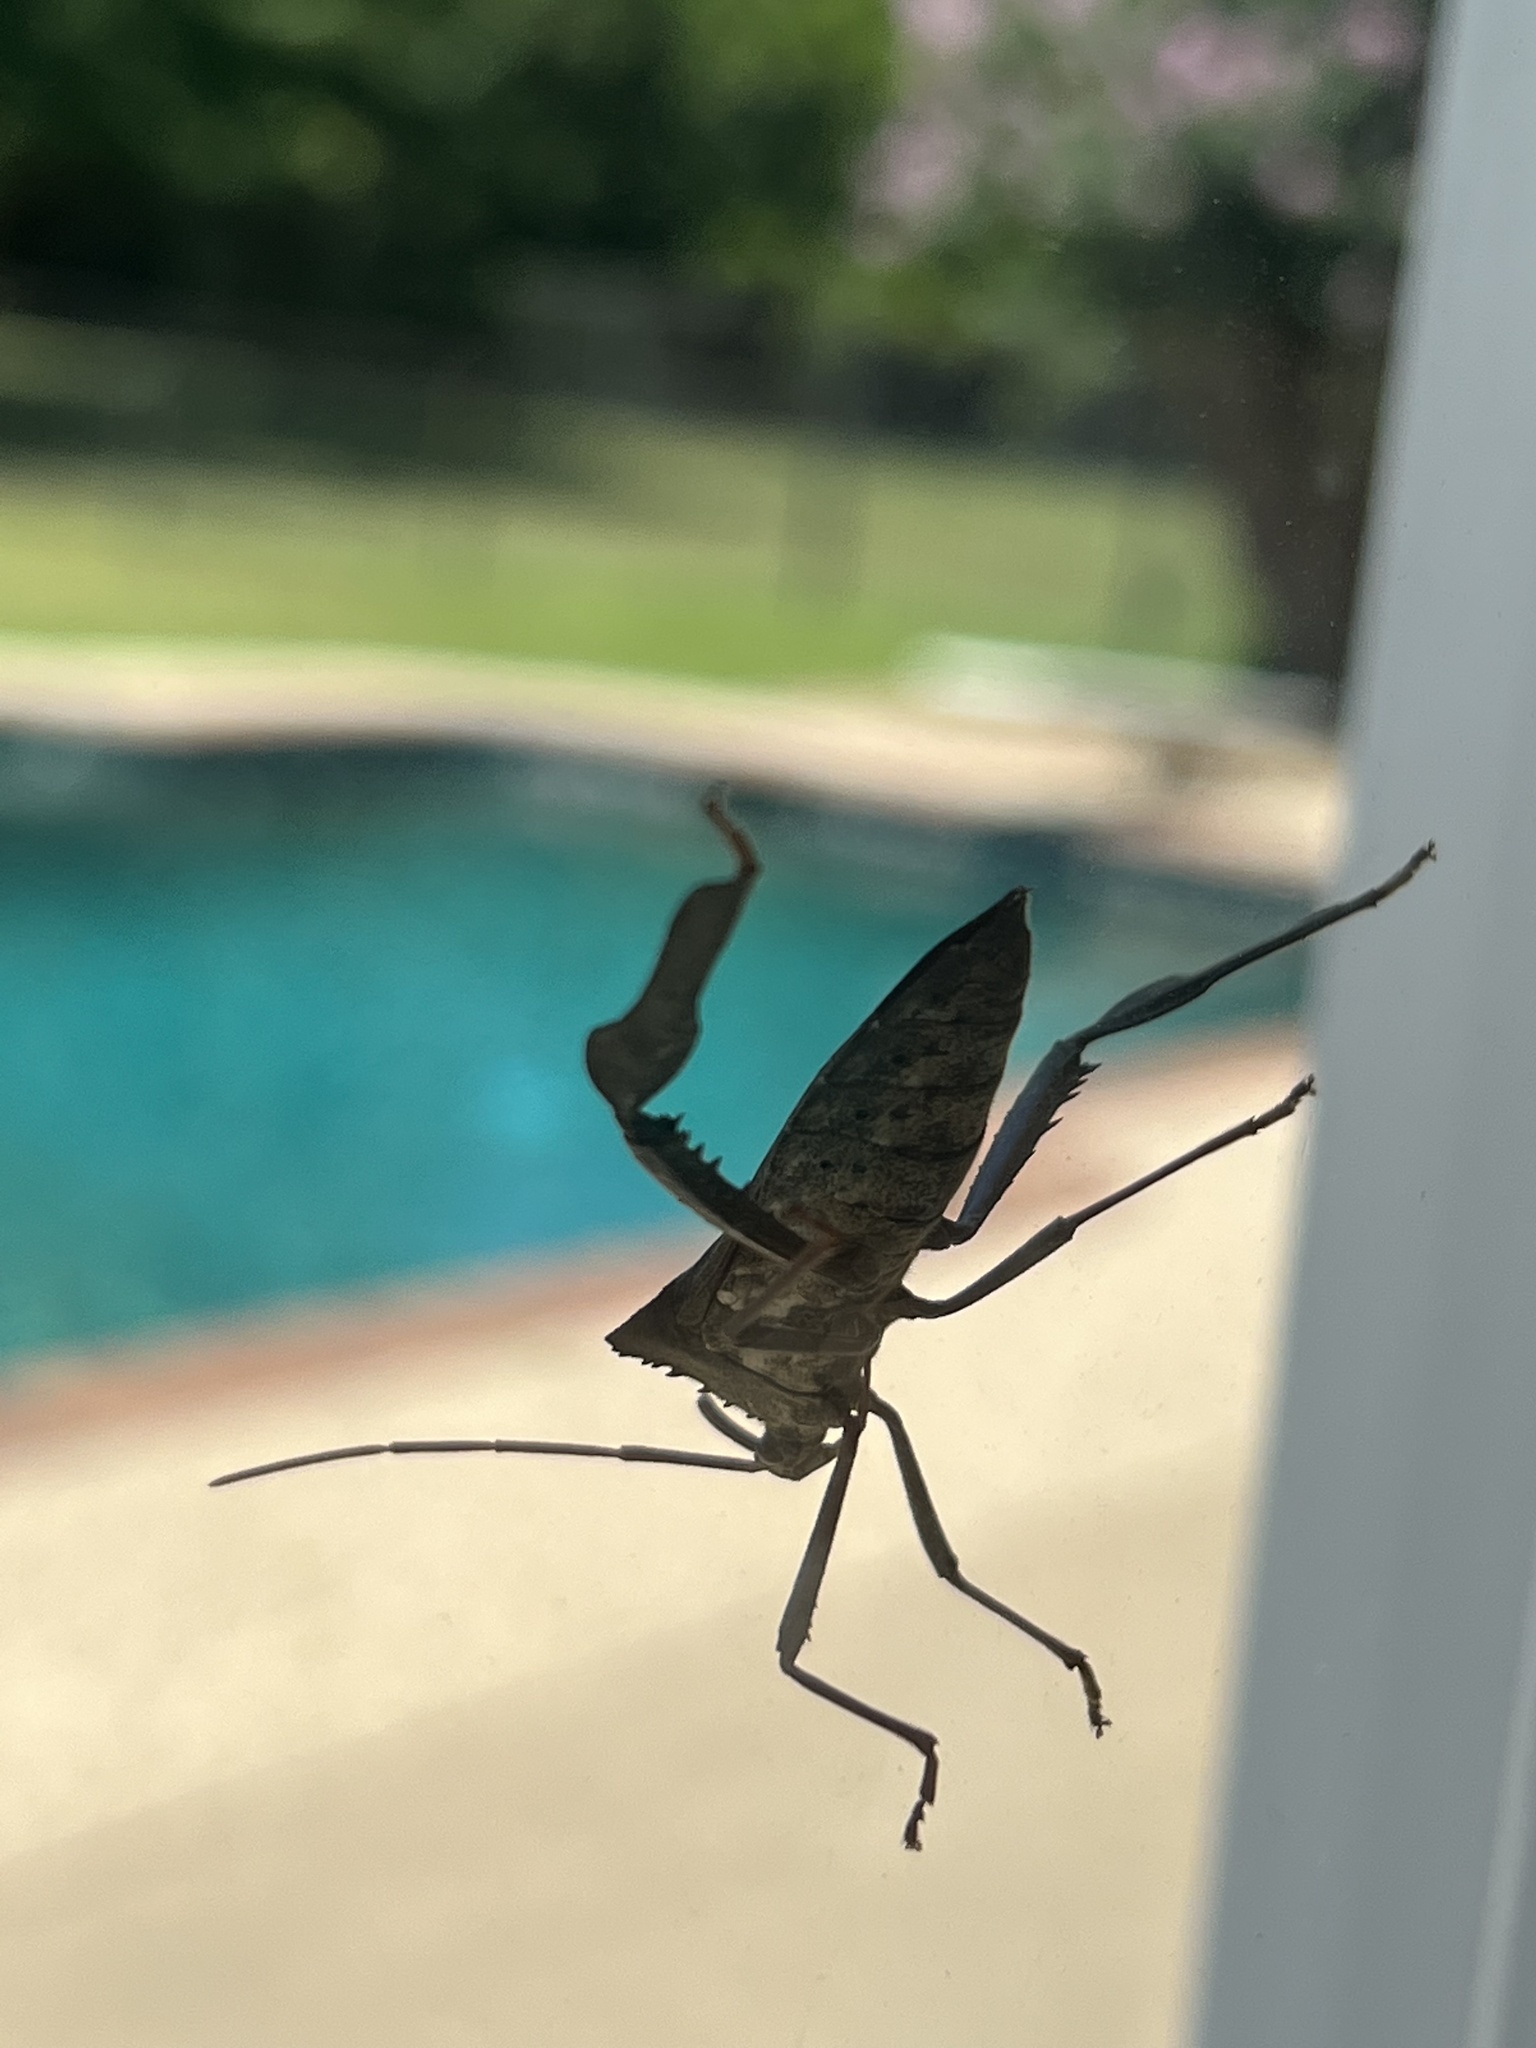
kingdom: Animalia
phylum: Arthropoda
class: Insecta
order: Hemiptera
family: Coreidae
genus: Acanthocephala
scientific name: Acanthocephala declivis
